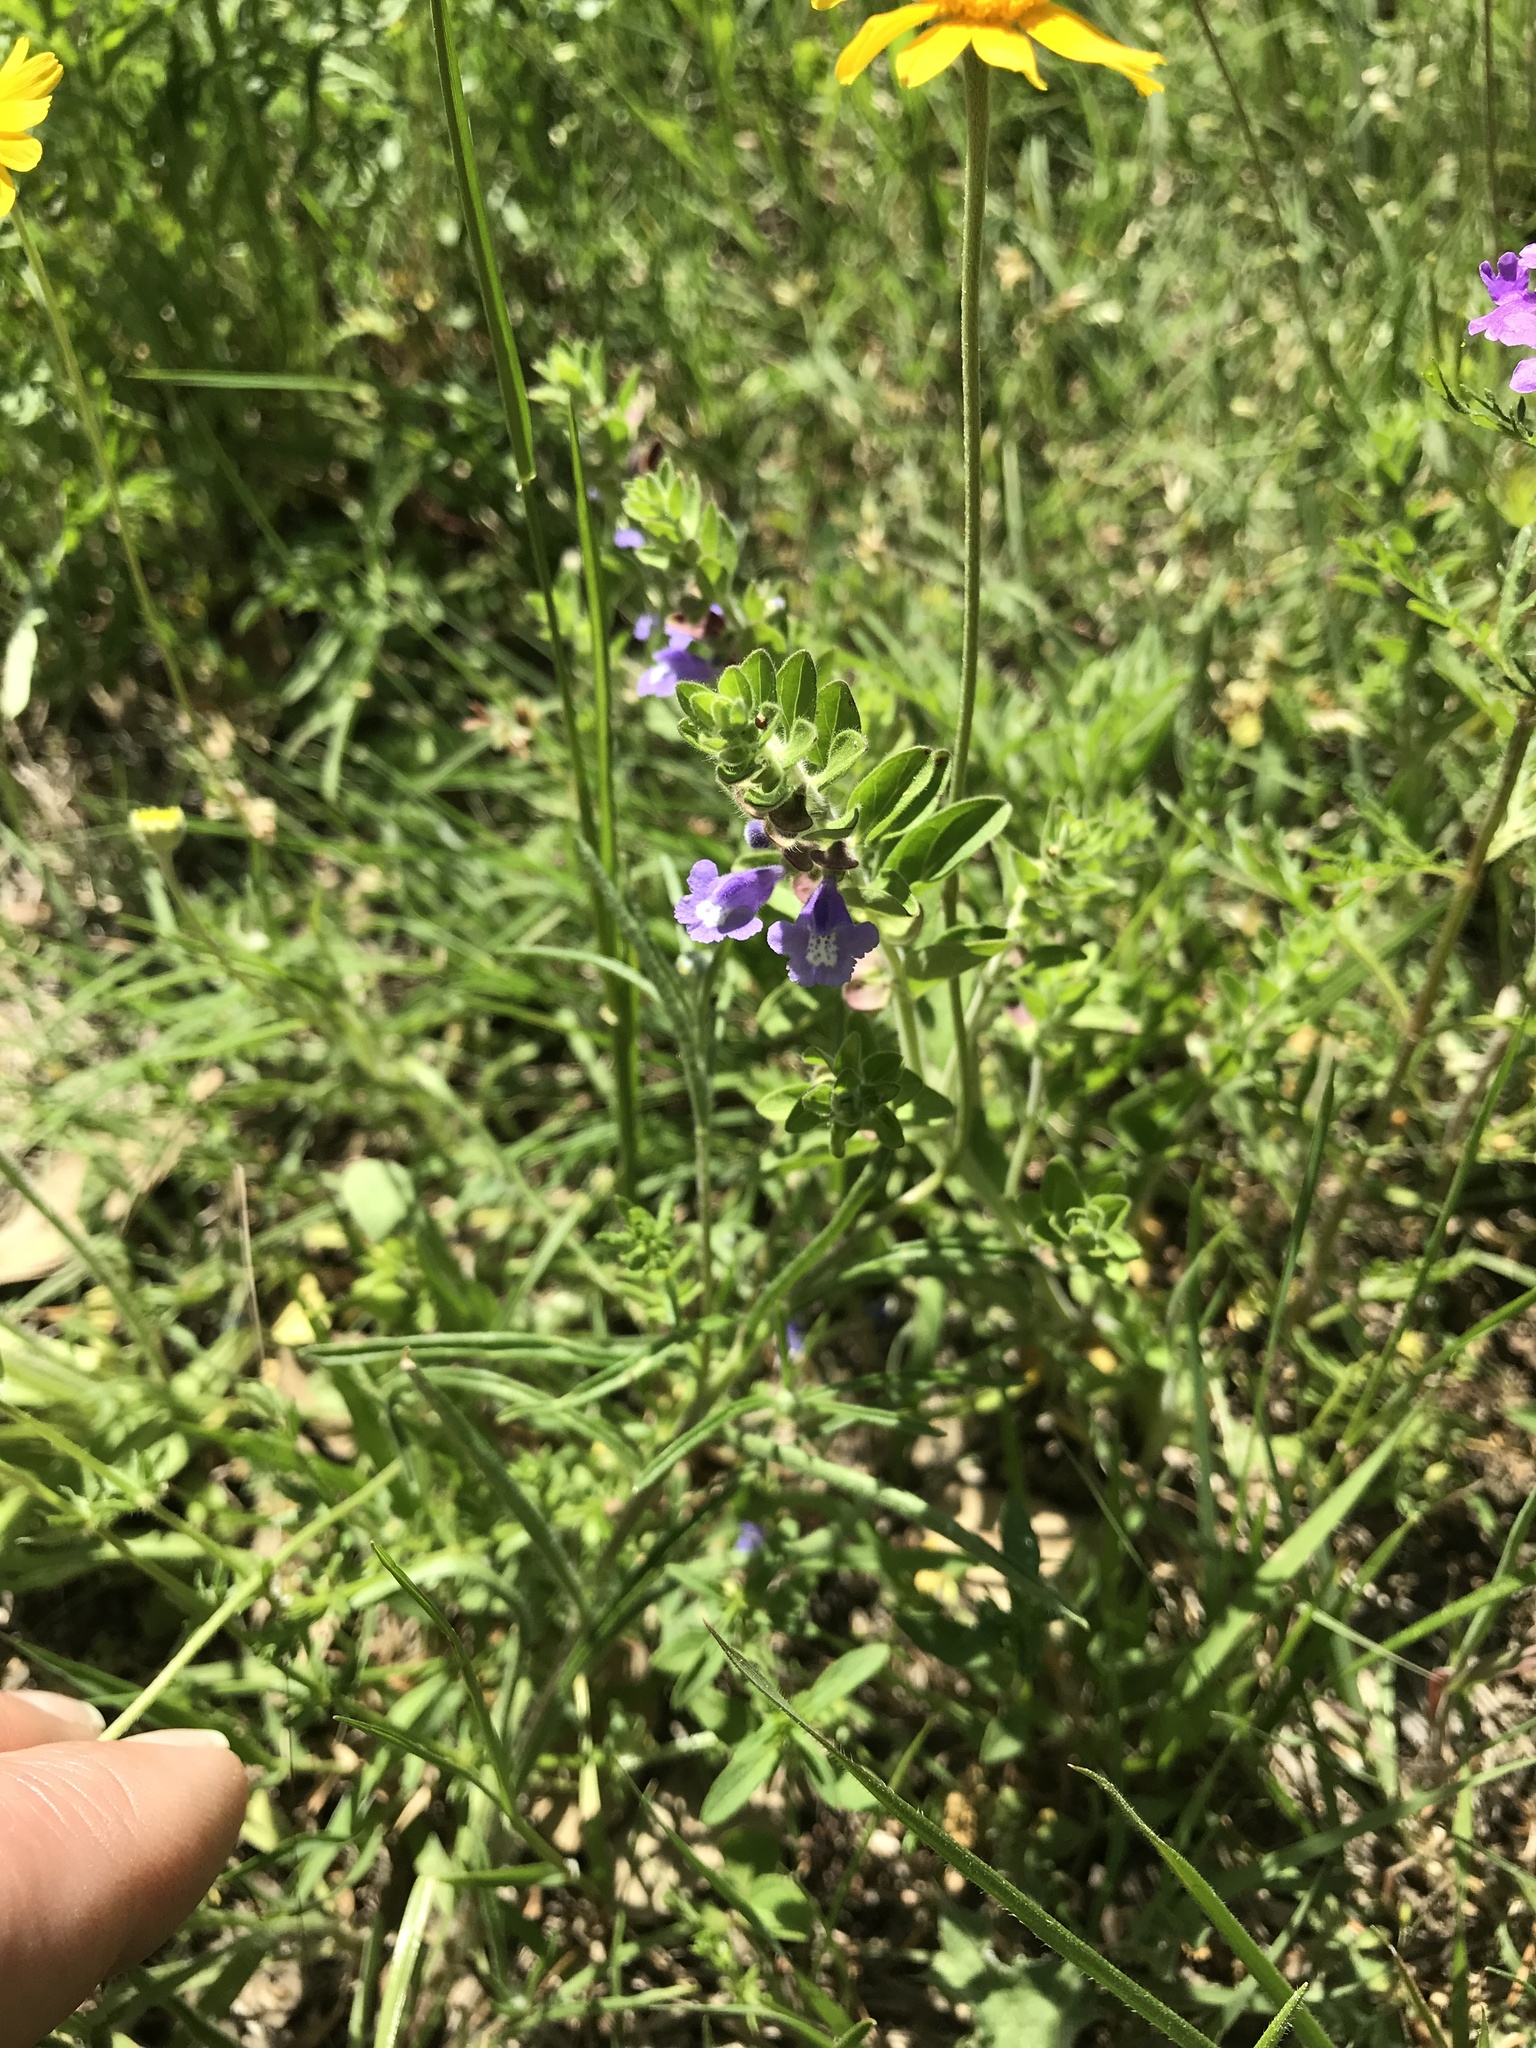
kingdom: Plantae
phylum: Tracheophyta
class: Magnoliopsida
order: Lamiales
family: Lamiaceae
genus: Scutellaria
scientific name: Scutellaria drummondii
